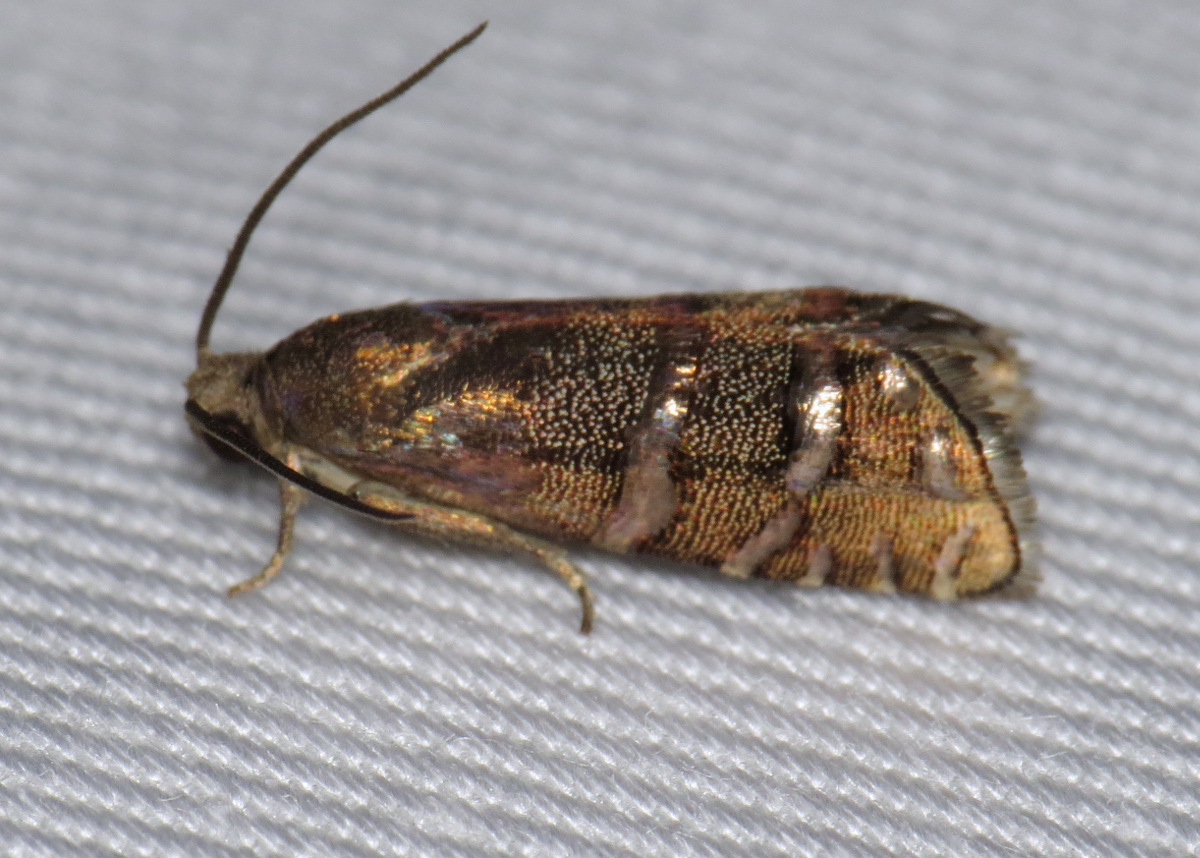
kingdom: Animalia
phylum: Arthropoda
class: Insecta
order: Lepidoptera
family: Tortricidae
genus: Cydia
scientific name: Cydia toreuta
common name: Eastern pine seedworm moth
